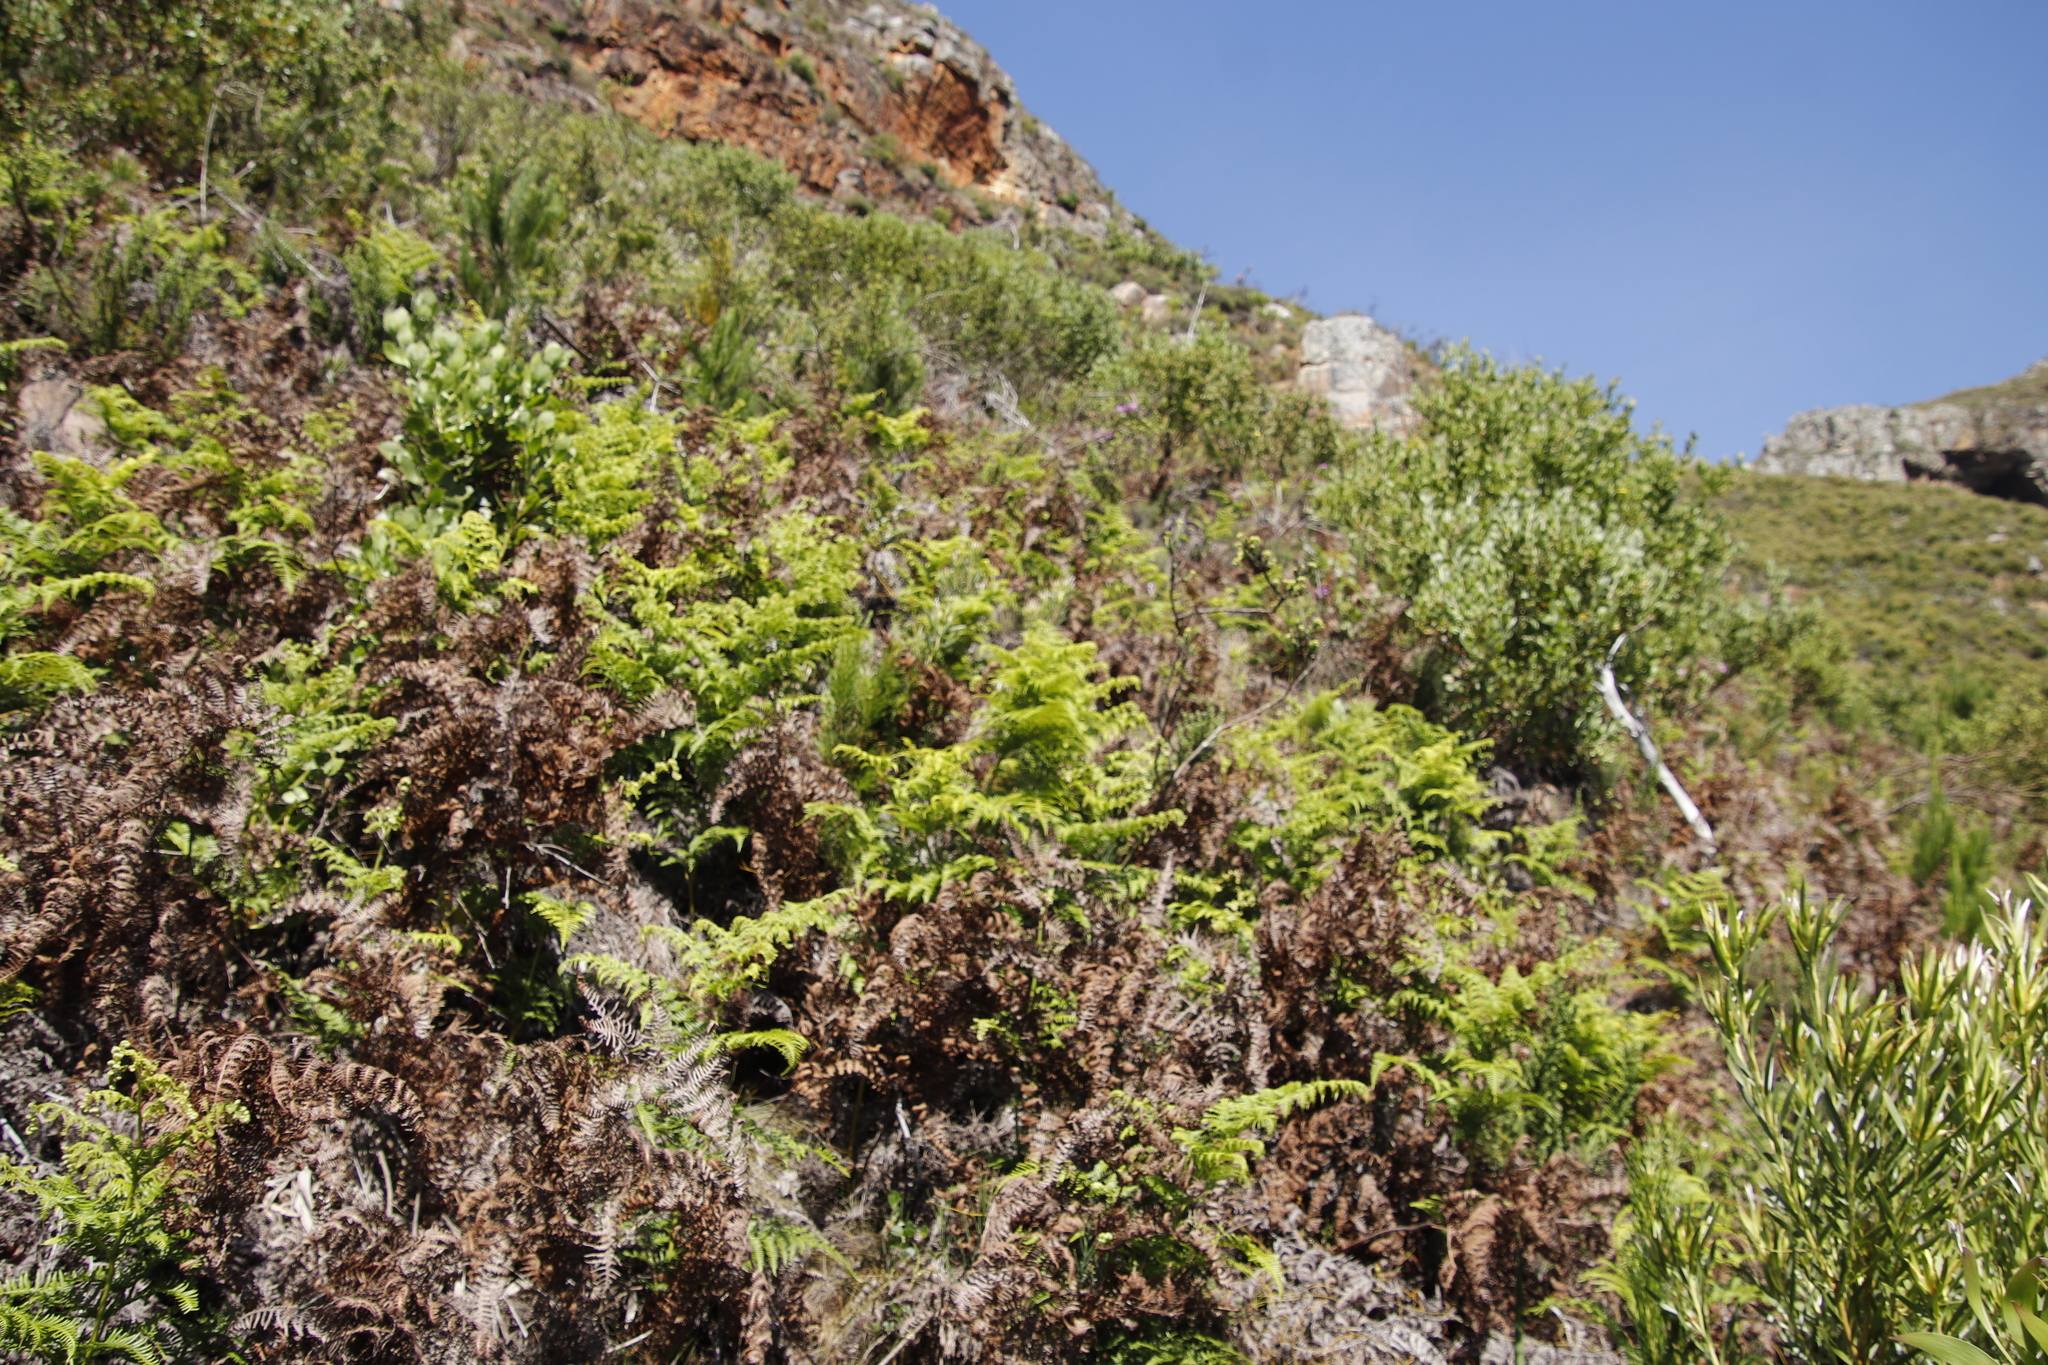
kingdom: Plantae
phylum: Tracheophyta
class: Polypodiopsida
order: Polypodiales
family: Dennstaedtiaceae
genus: Pteridium
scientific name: Pteridium aquilinum
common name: Bracken
